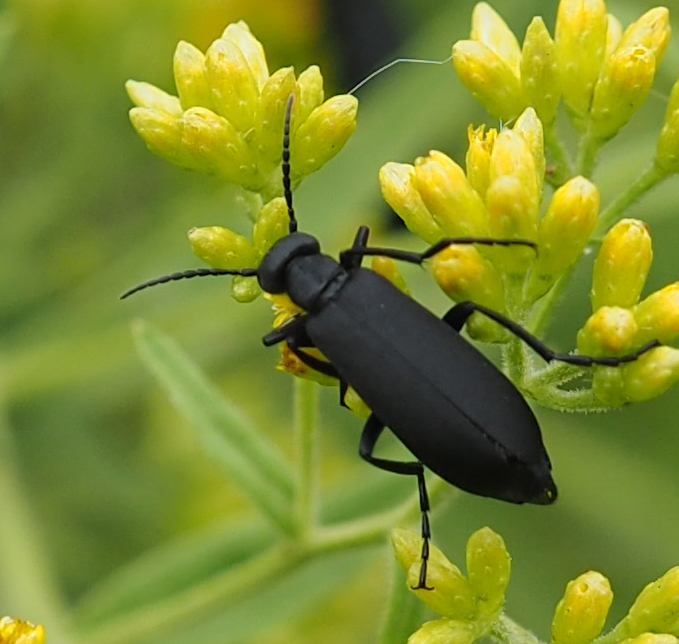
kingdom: Animalia
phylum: Arthropoda
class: Insecta
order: Coleoptera
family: Meloidae
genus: Epicauta
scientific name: Epicauta pensylvanica
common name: Black blister beetle
